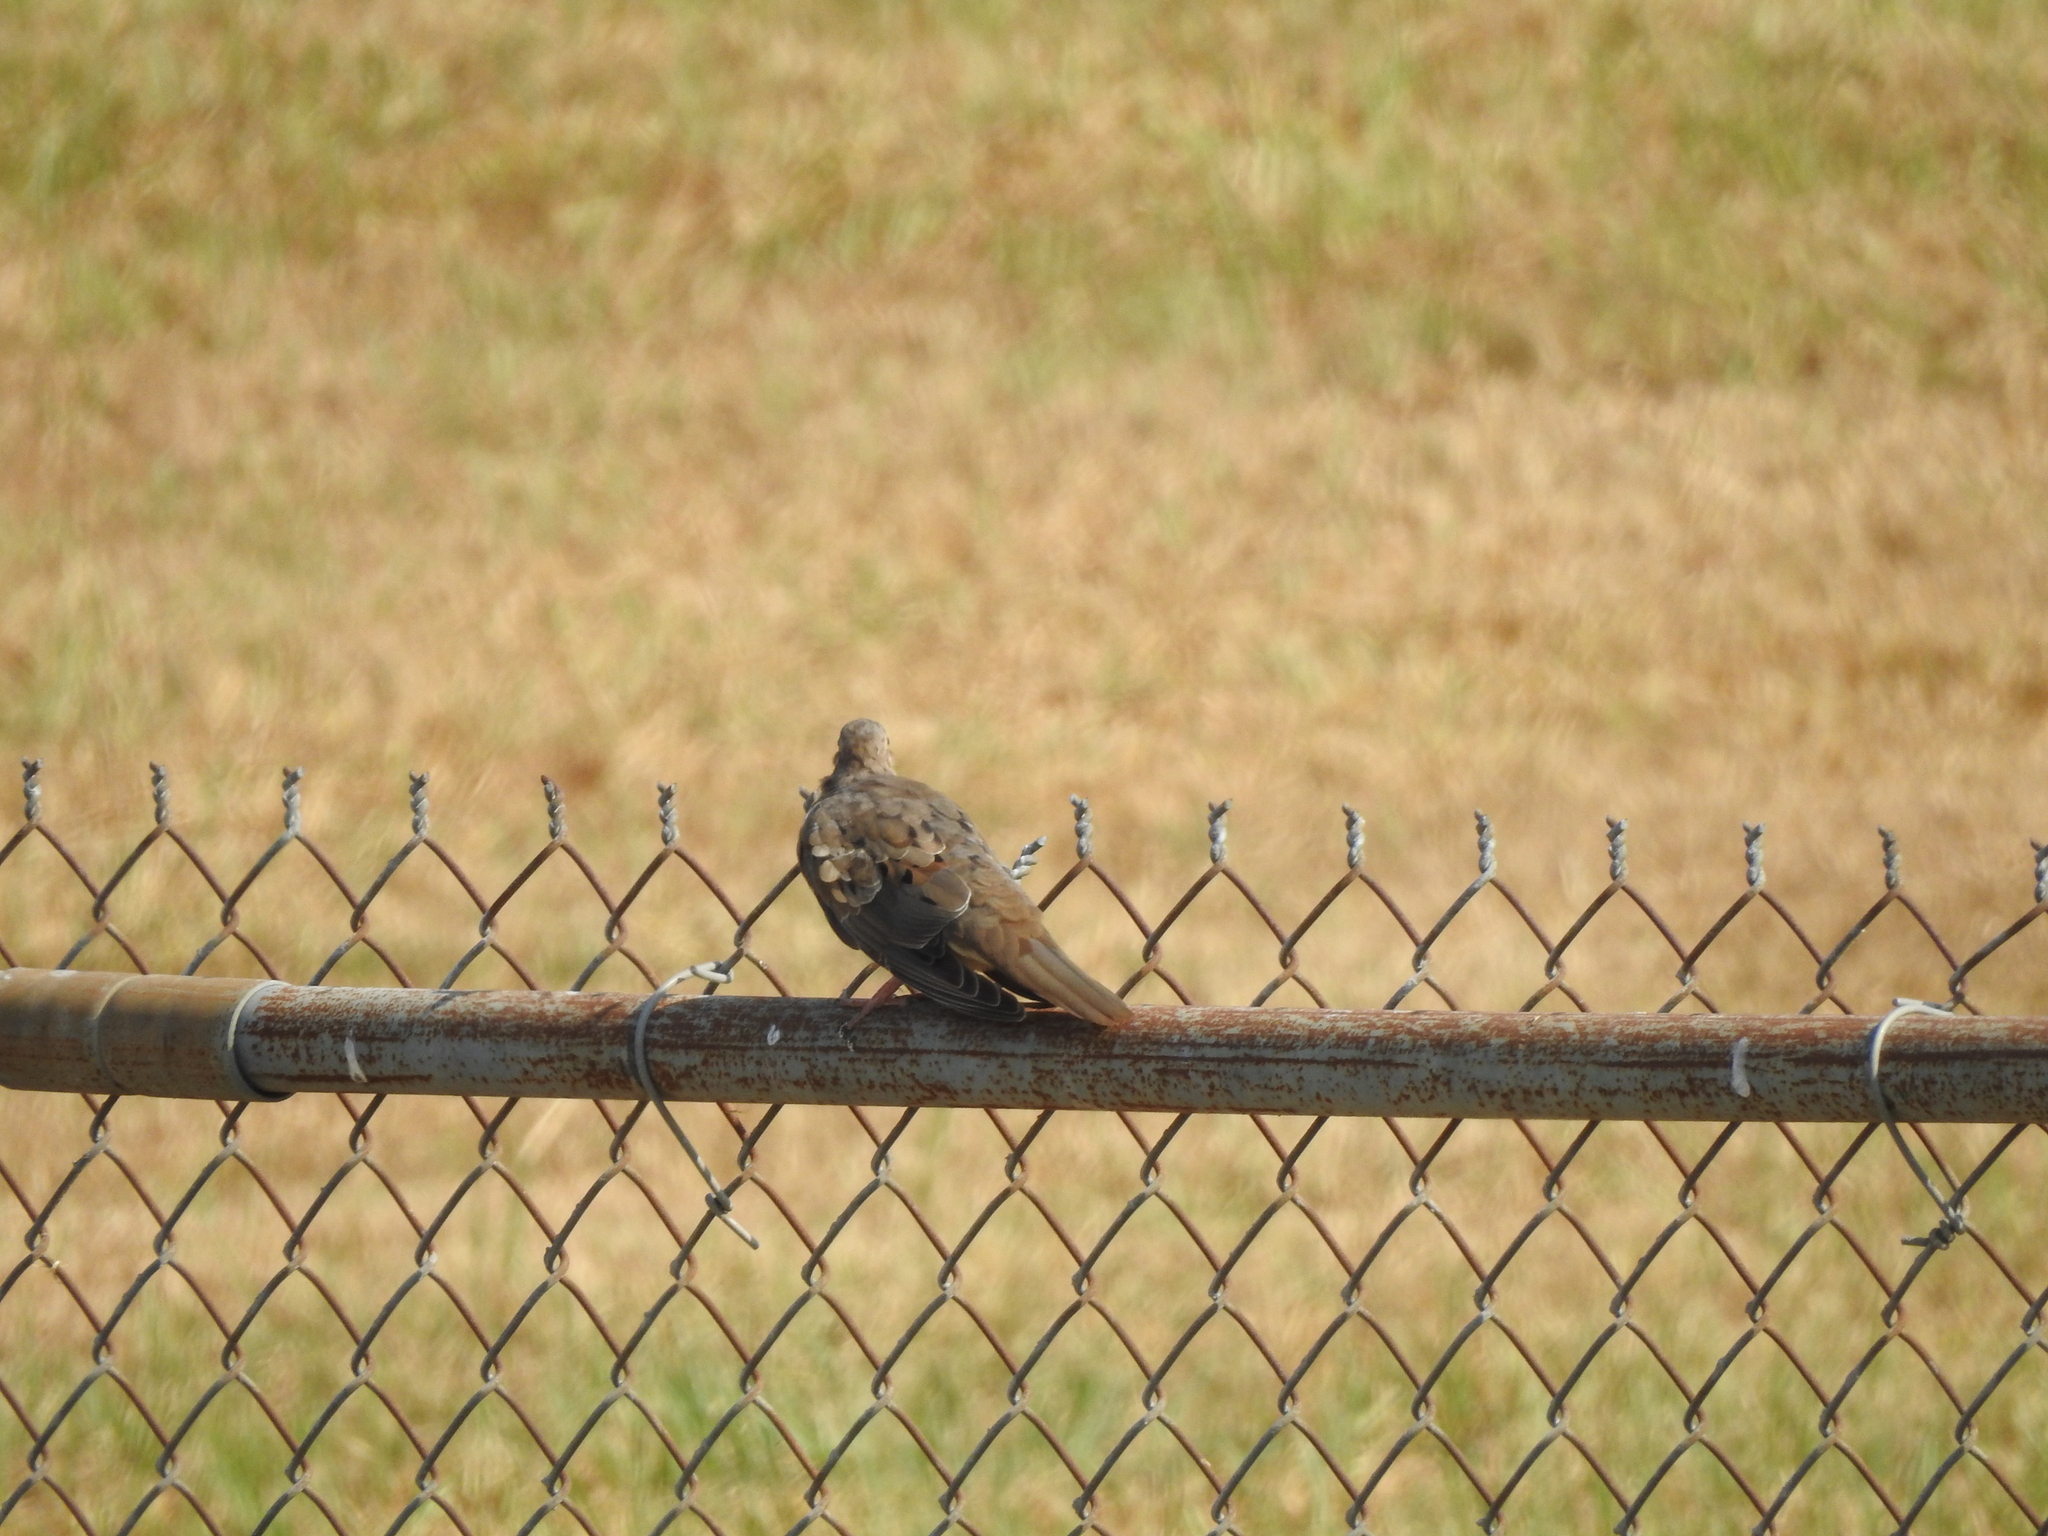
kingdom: Animalia
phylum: Chordata
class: Aves
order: Columbiformes
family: Columbidae
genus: Zenaida
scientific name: Zenaida macroura
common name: Mourning dove
